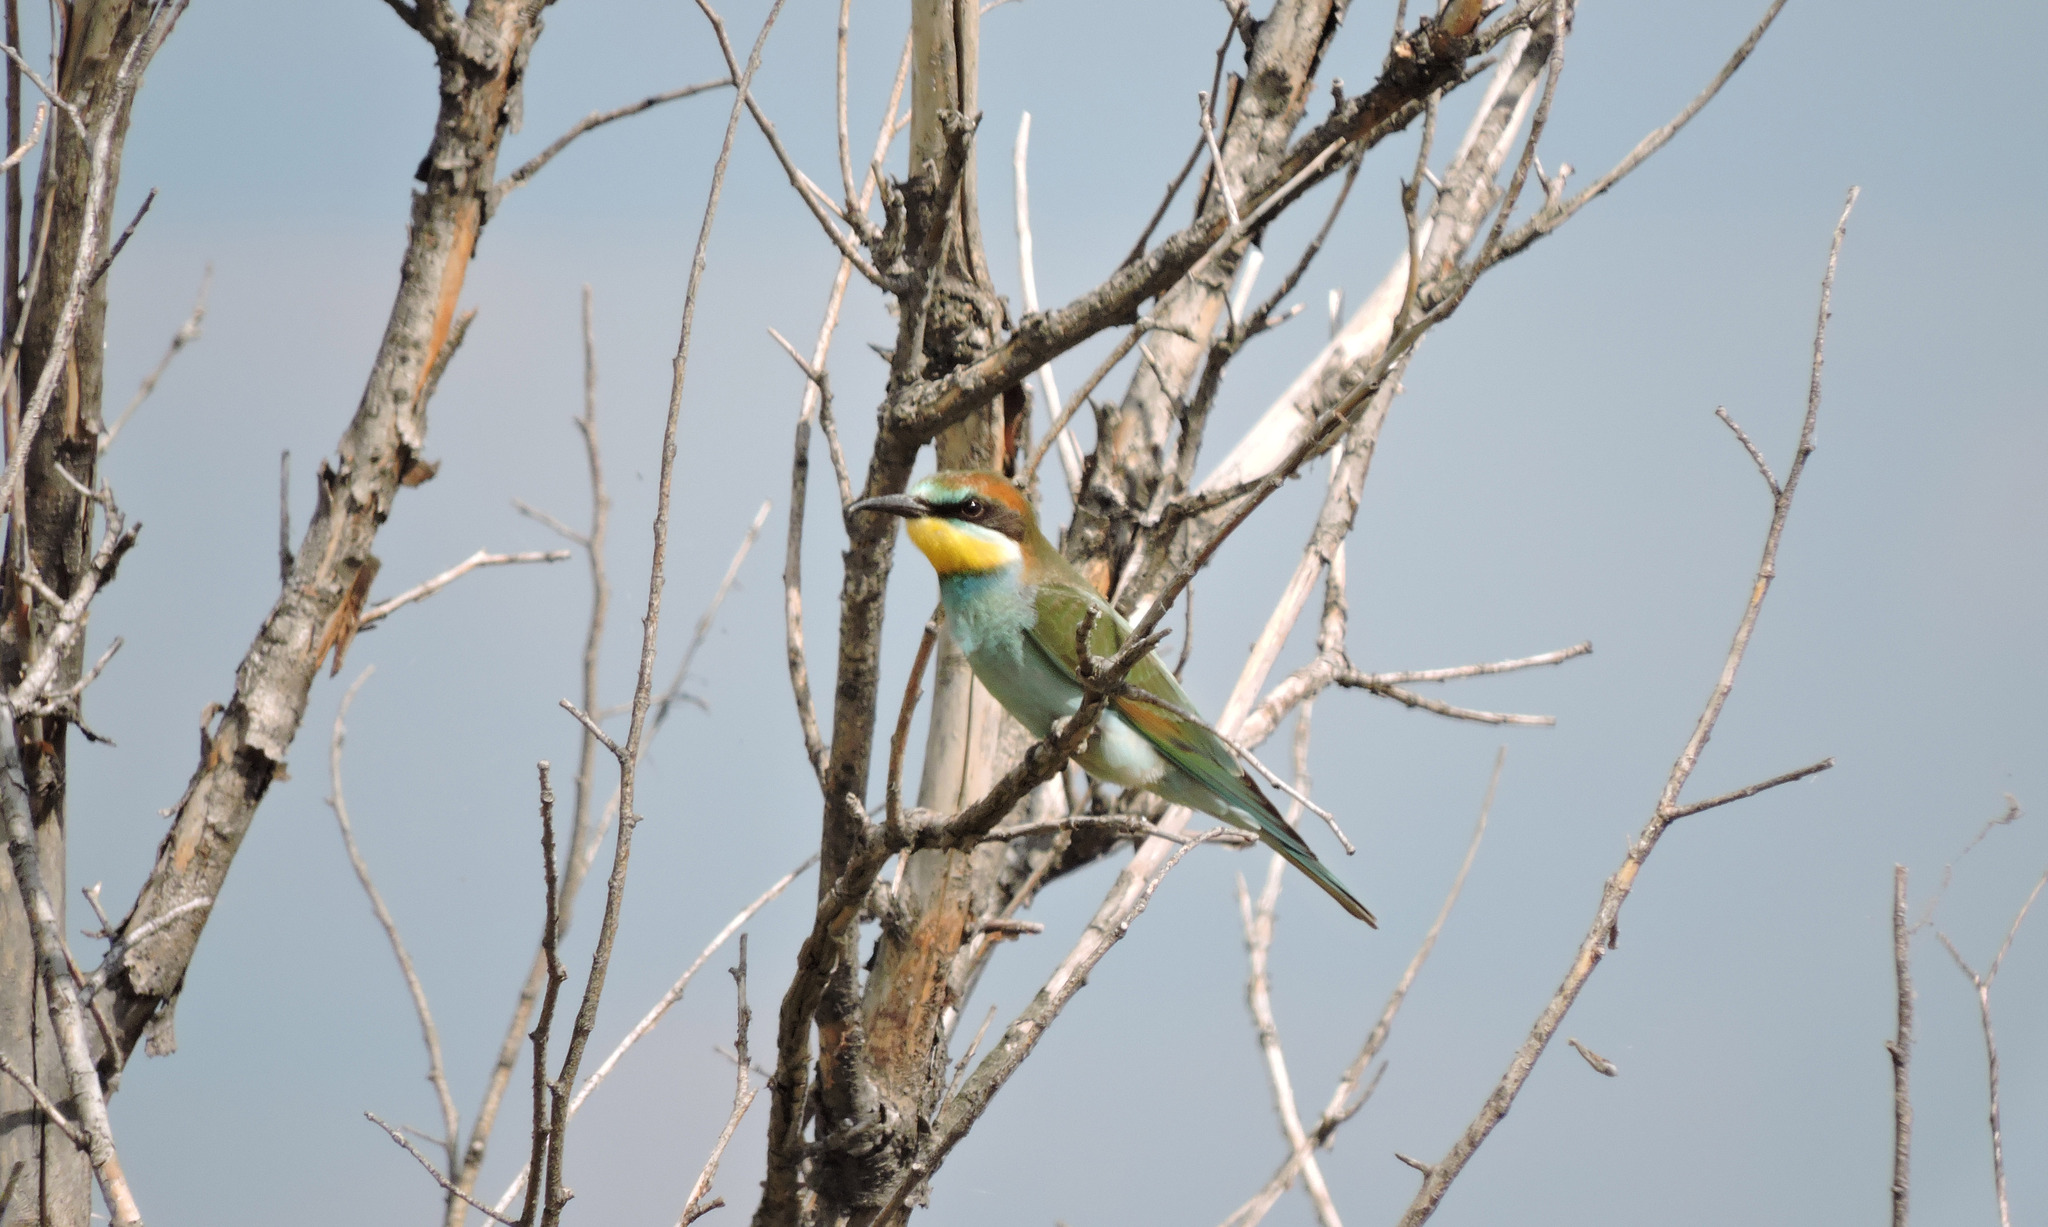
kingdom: Animalia
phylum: Chordata
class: Aves
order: Coraciiformes
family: Meropidae
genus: Merops
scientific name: Merops apiaster
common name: European bee-eater
